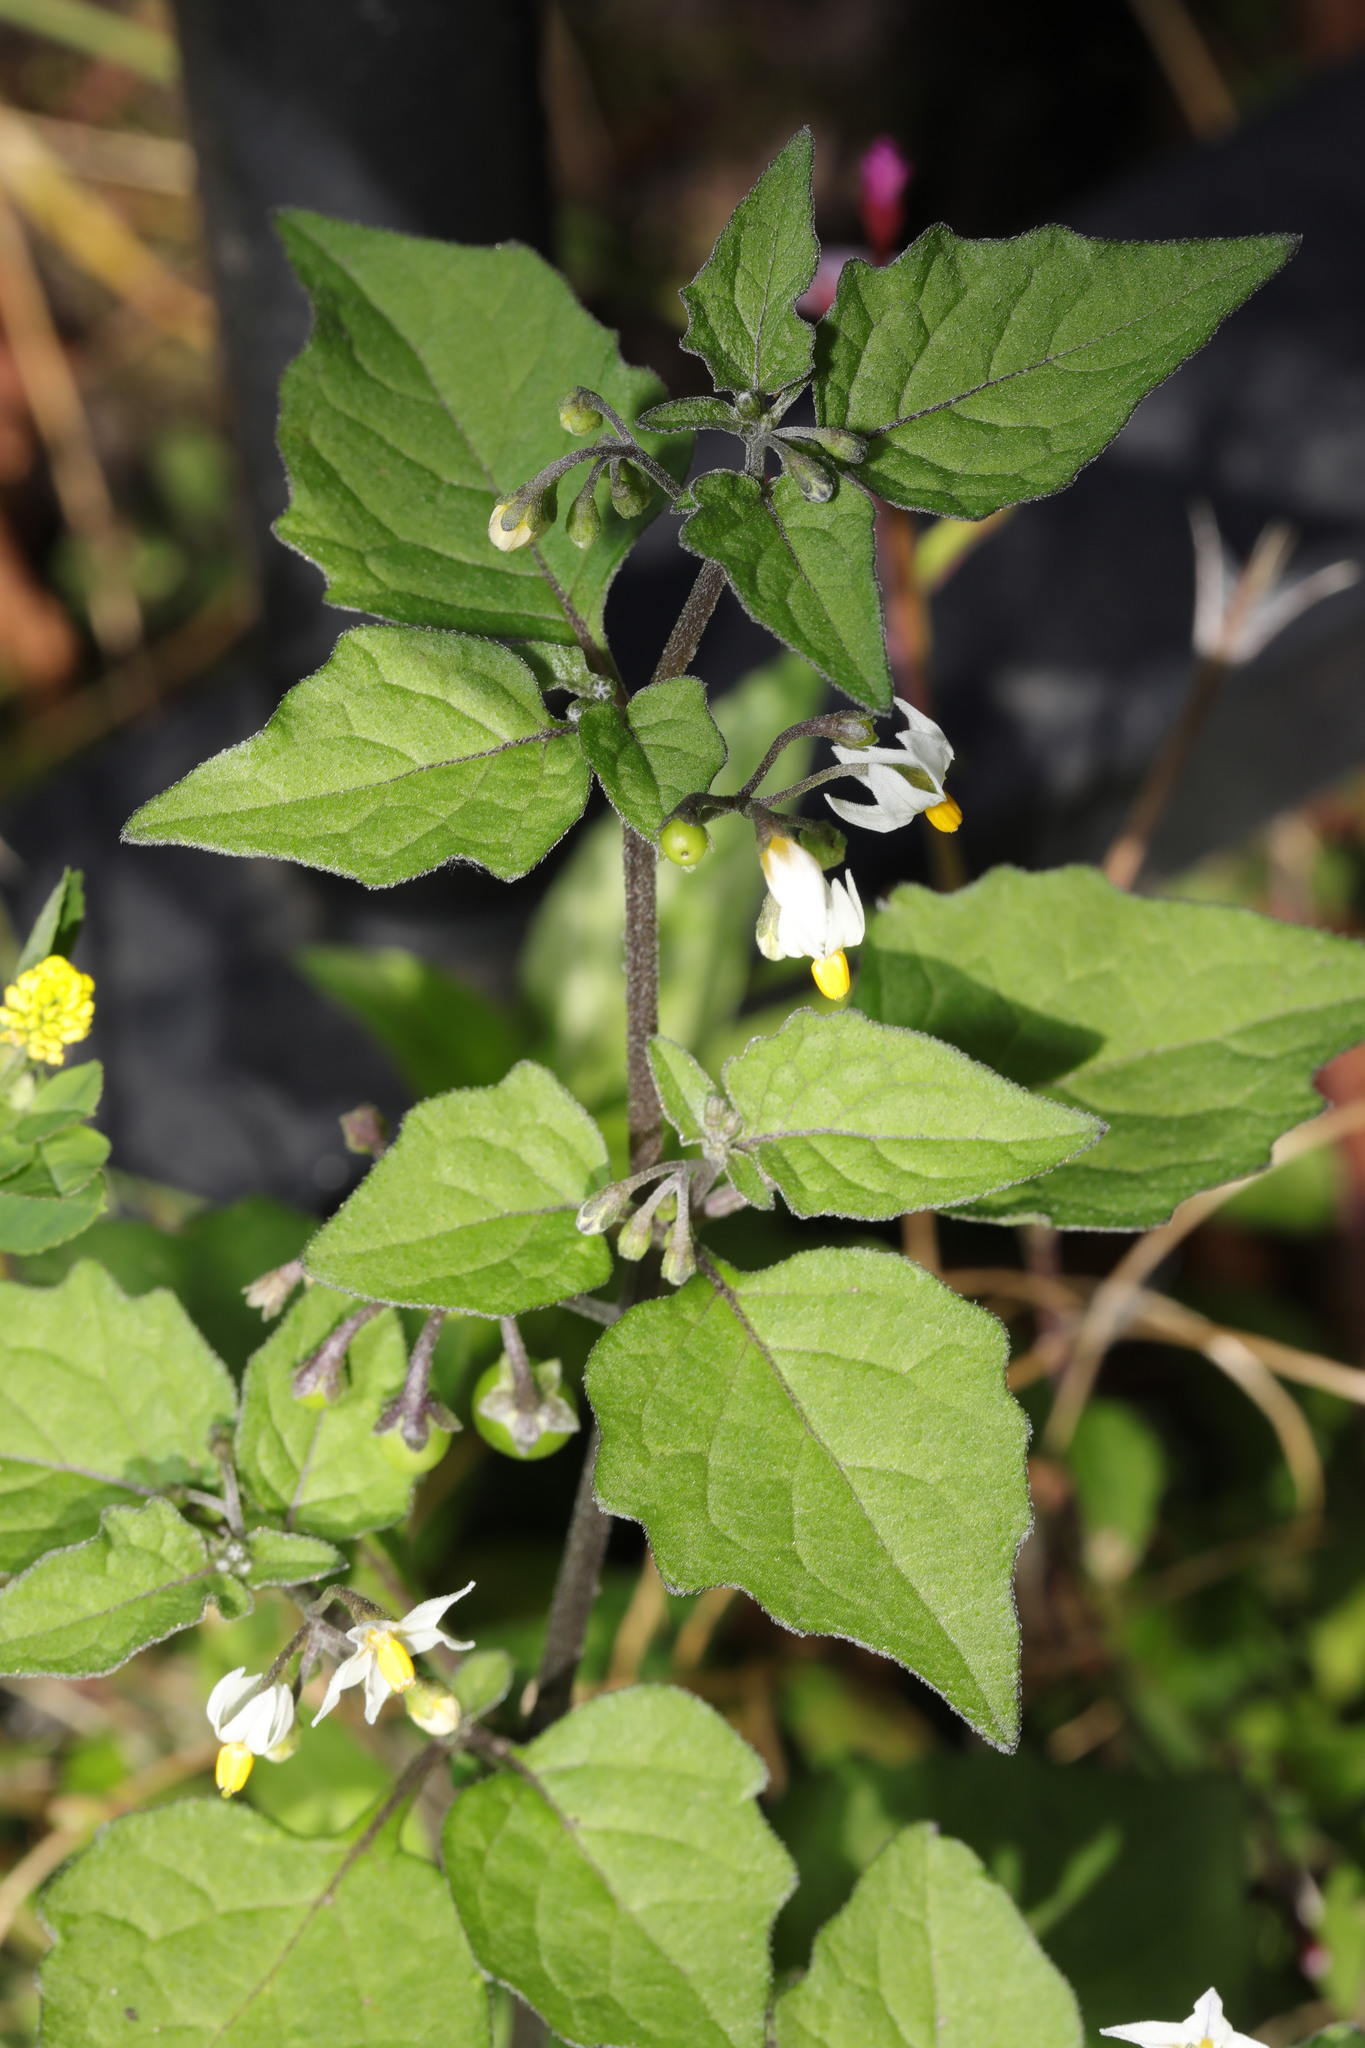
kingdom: Plantae
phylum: Tracheophyta
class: Magnoliopsida
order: Solanales
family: Solanaceae
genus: Solanum
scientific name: Solanum nigrum
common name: Black nightshade
